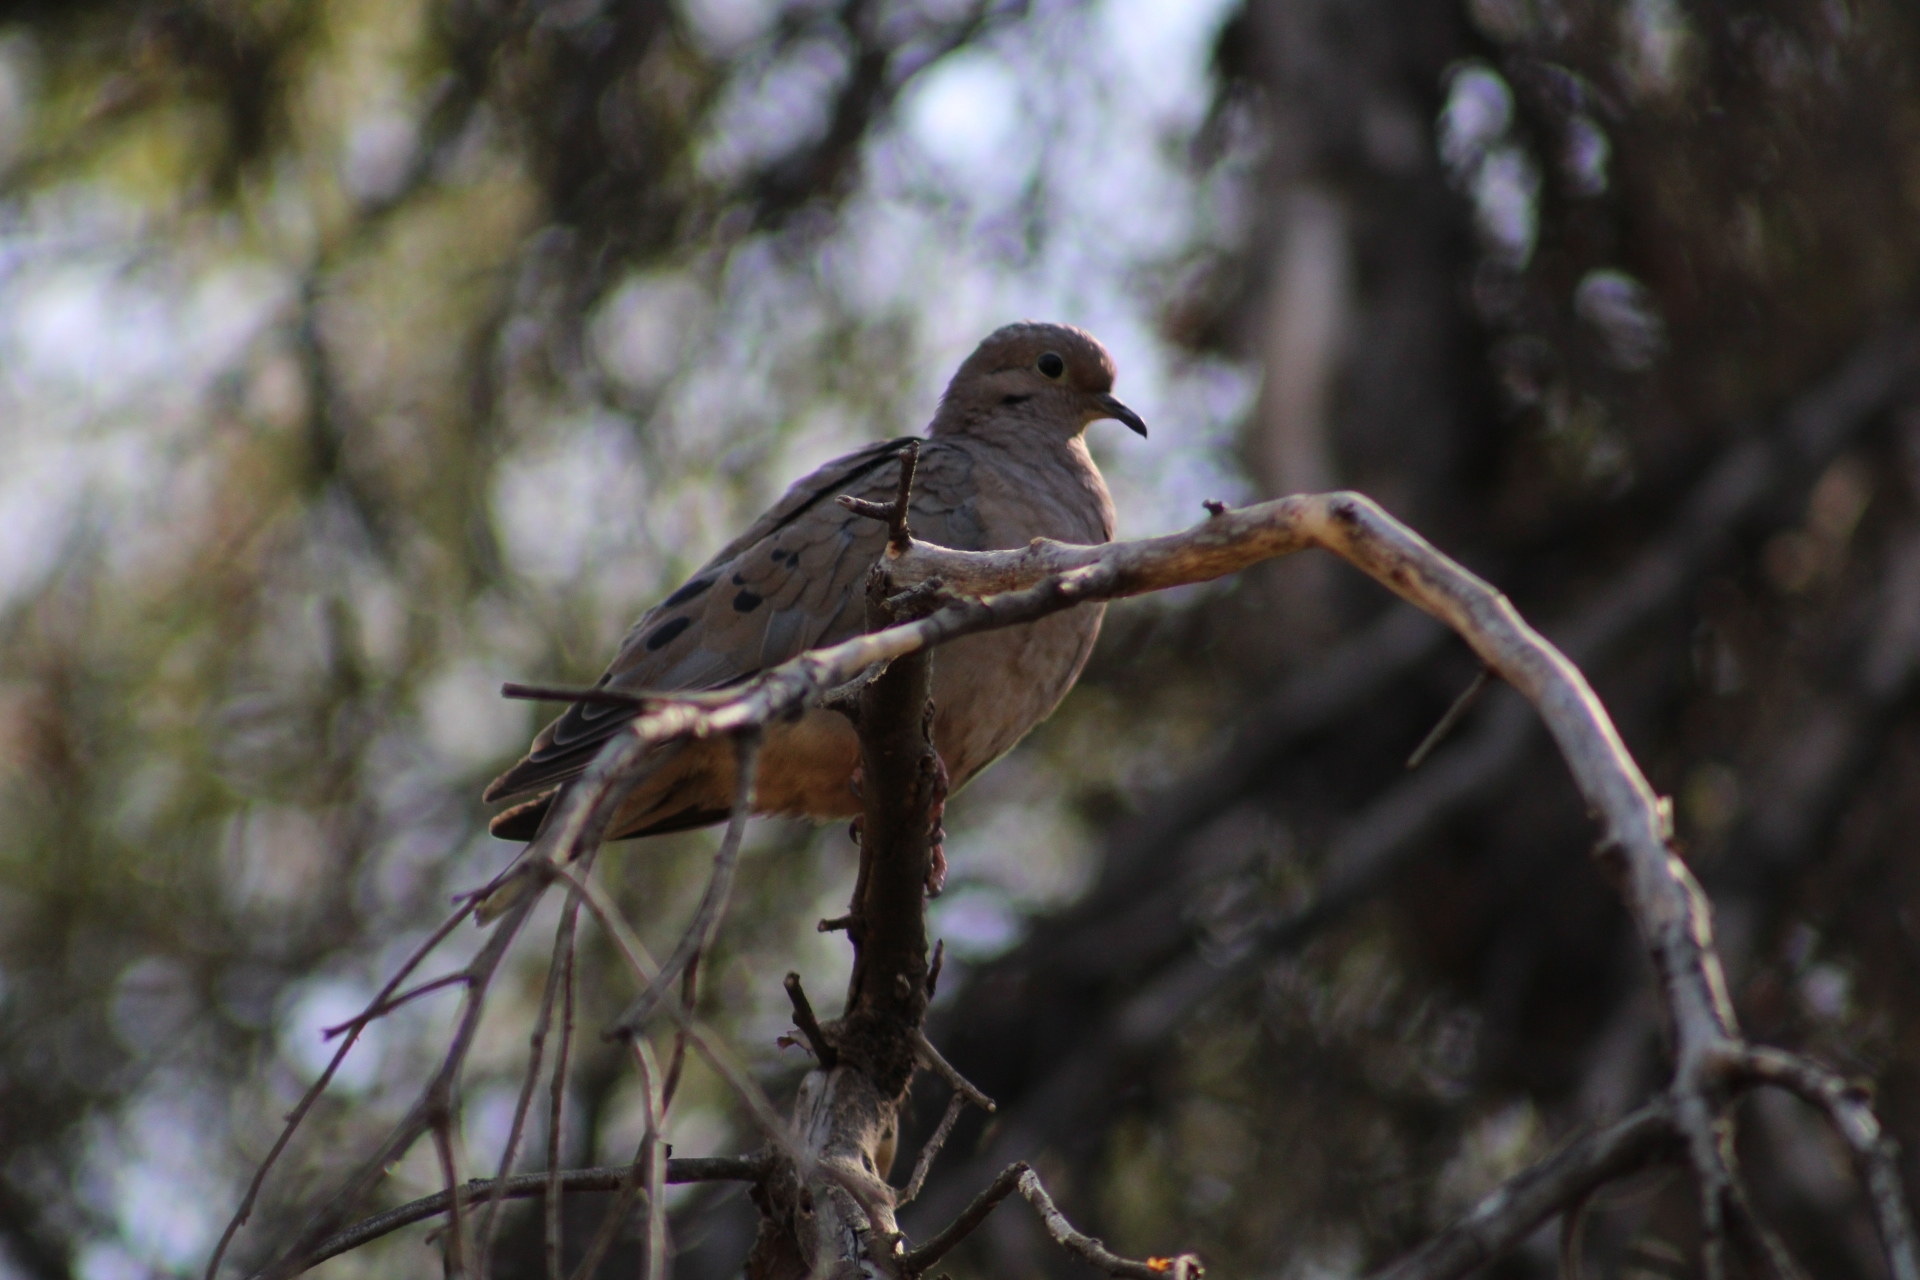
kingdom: Animalia
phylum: Chordata
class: Aves
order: Columbiformes
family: Columbidae
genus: Zenaida
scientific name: Zenaida auriculata
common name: Eared dove
